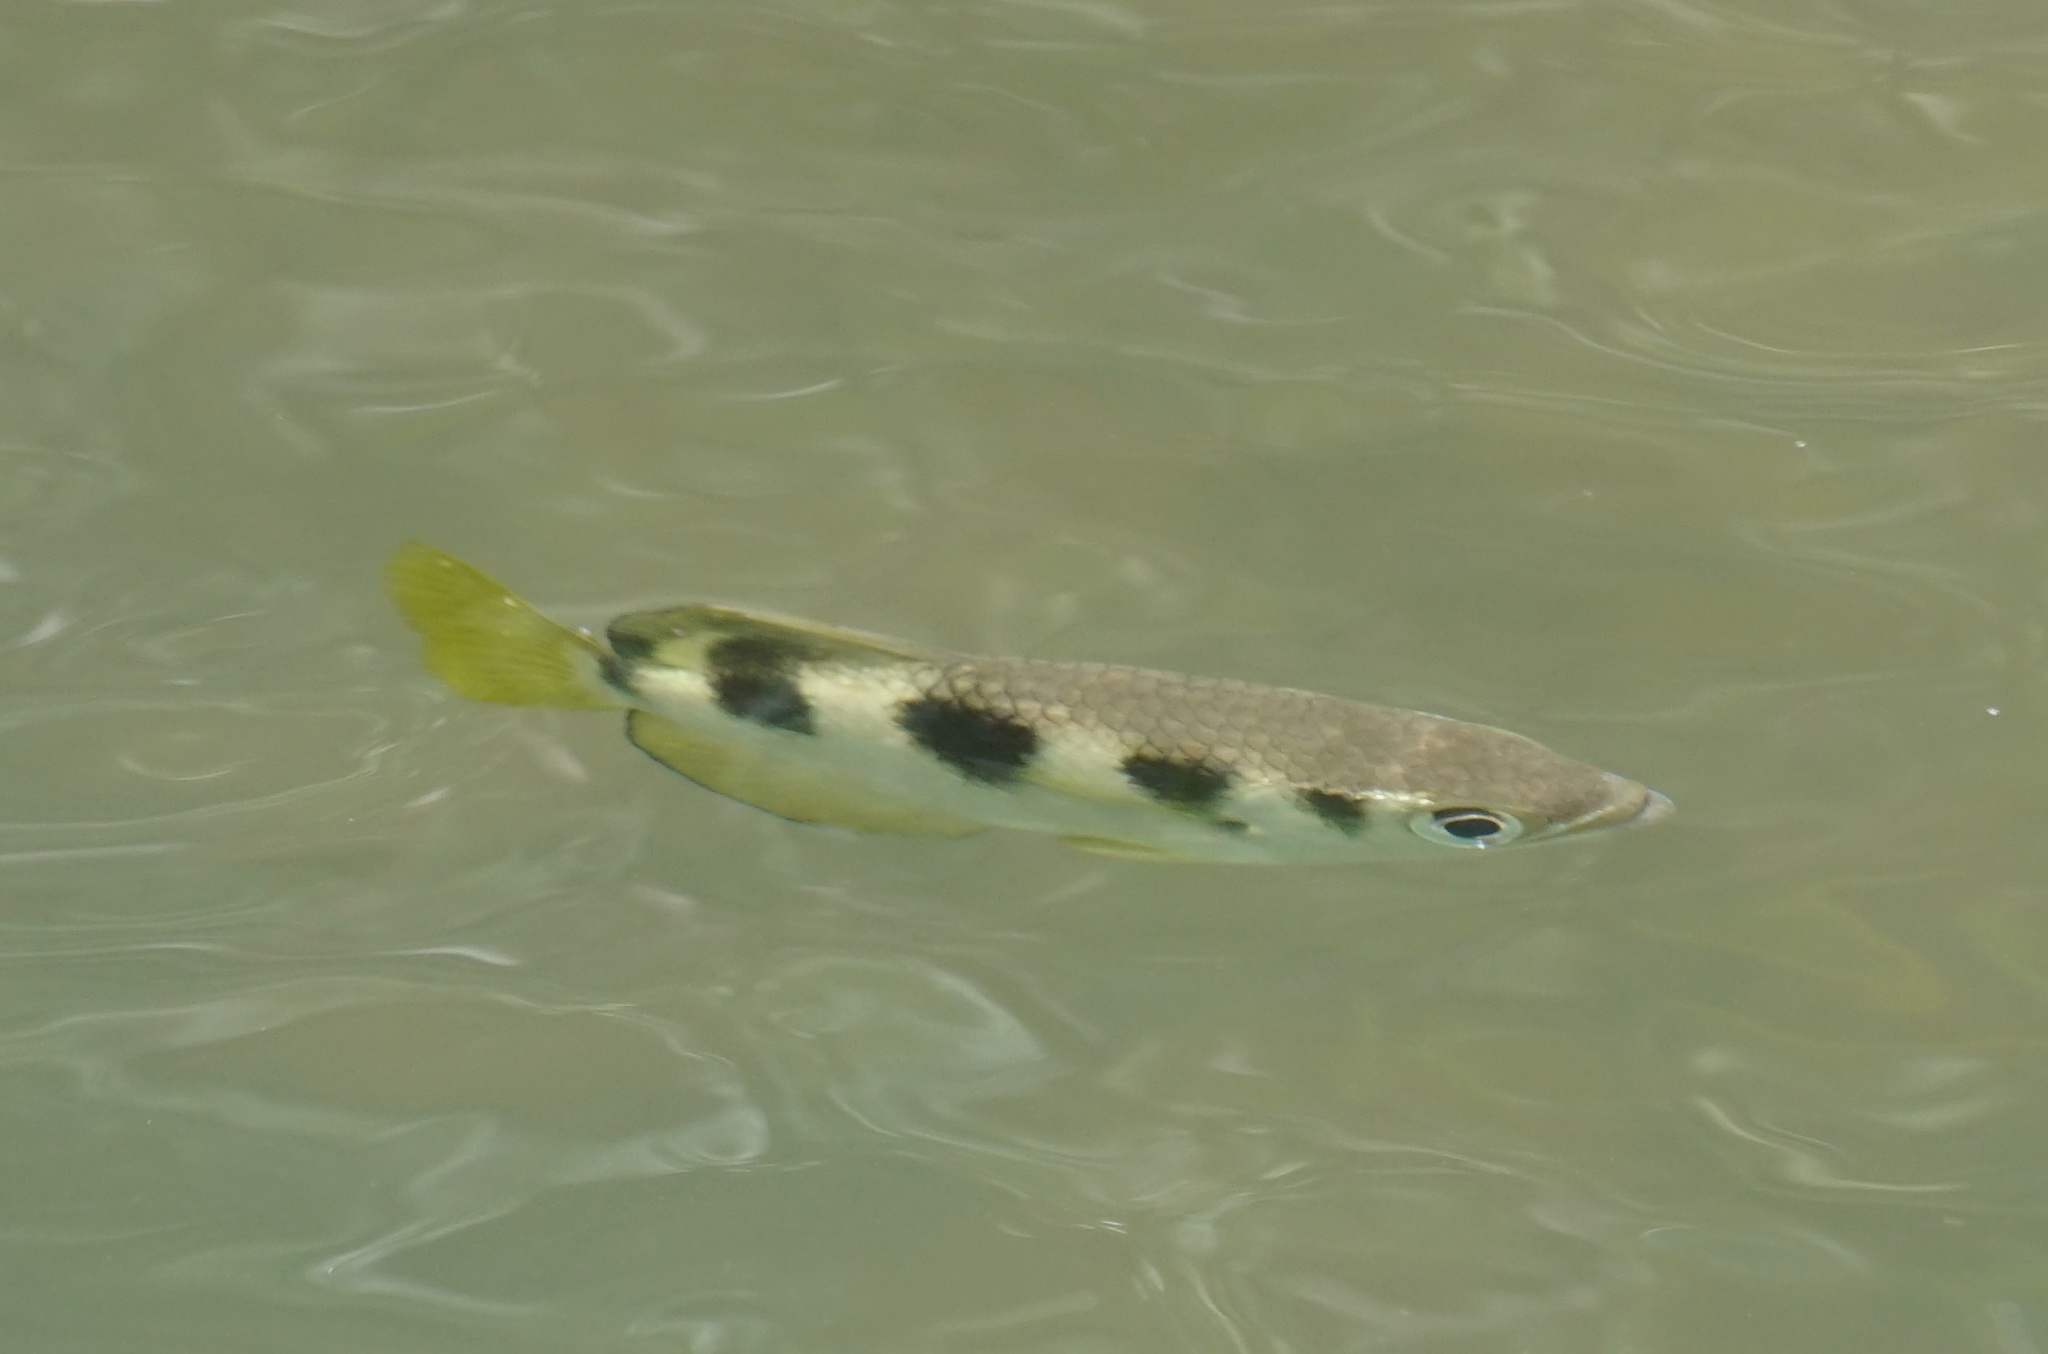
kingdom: Animalia
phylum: Chordata
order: Perciformes
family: Toxotidae
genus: Toxotes
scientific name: Toxotes jaculatrix
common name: Banded archerfish
